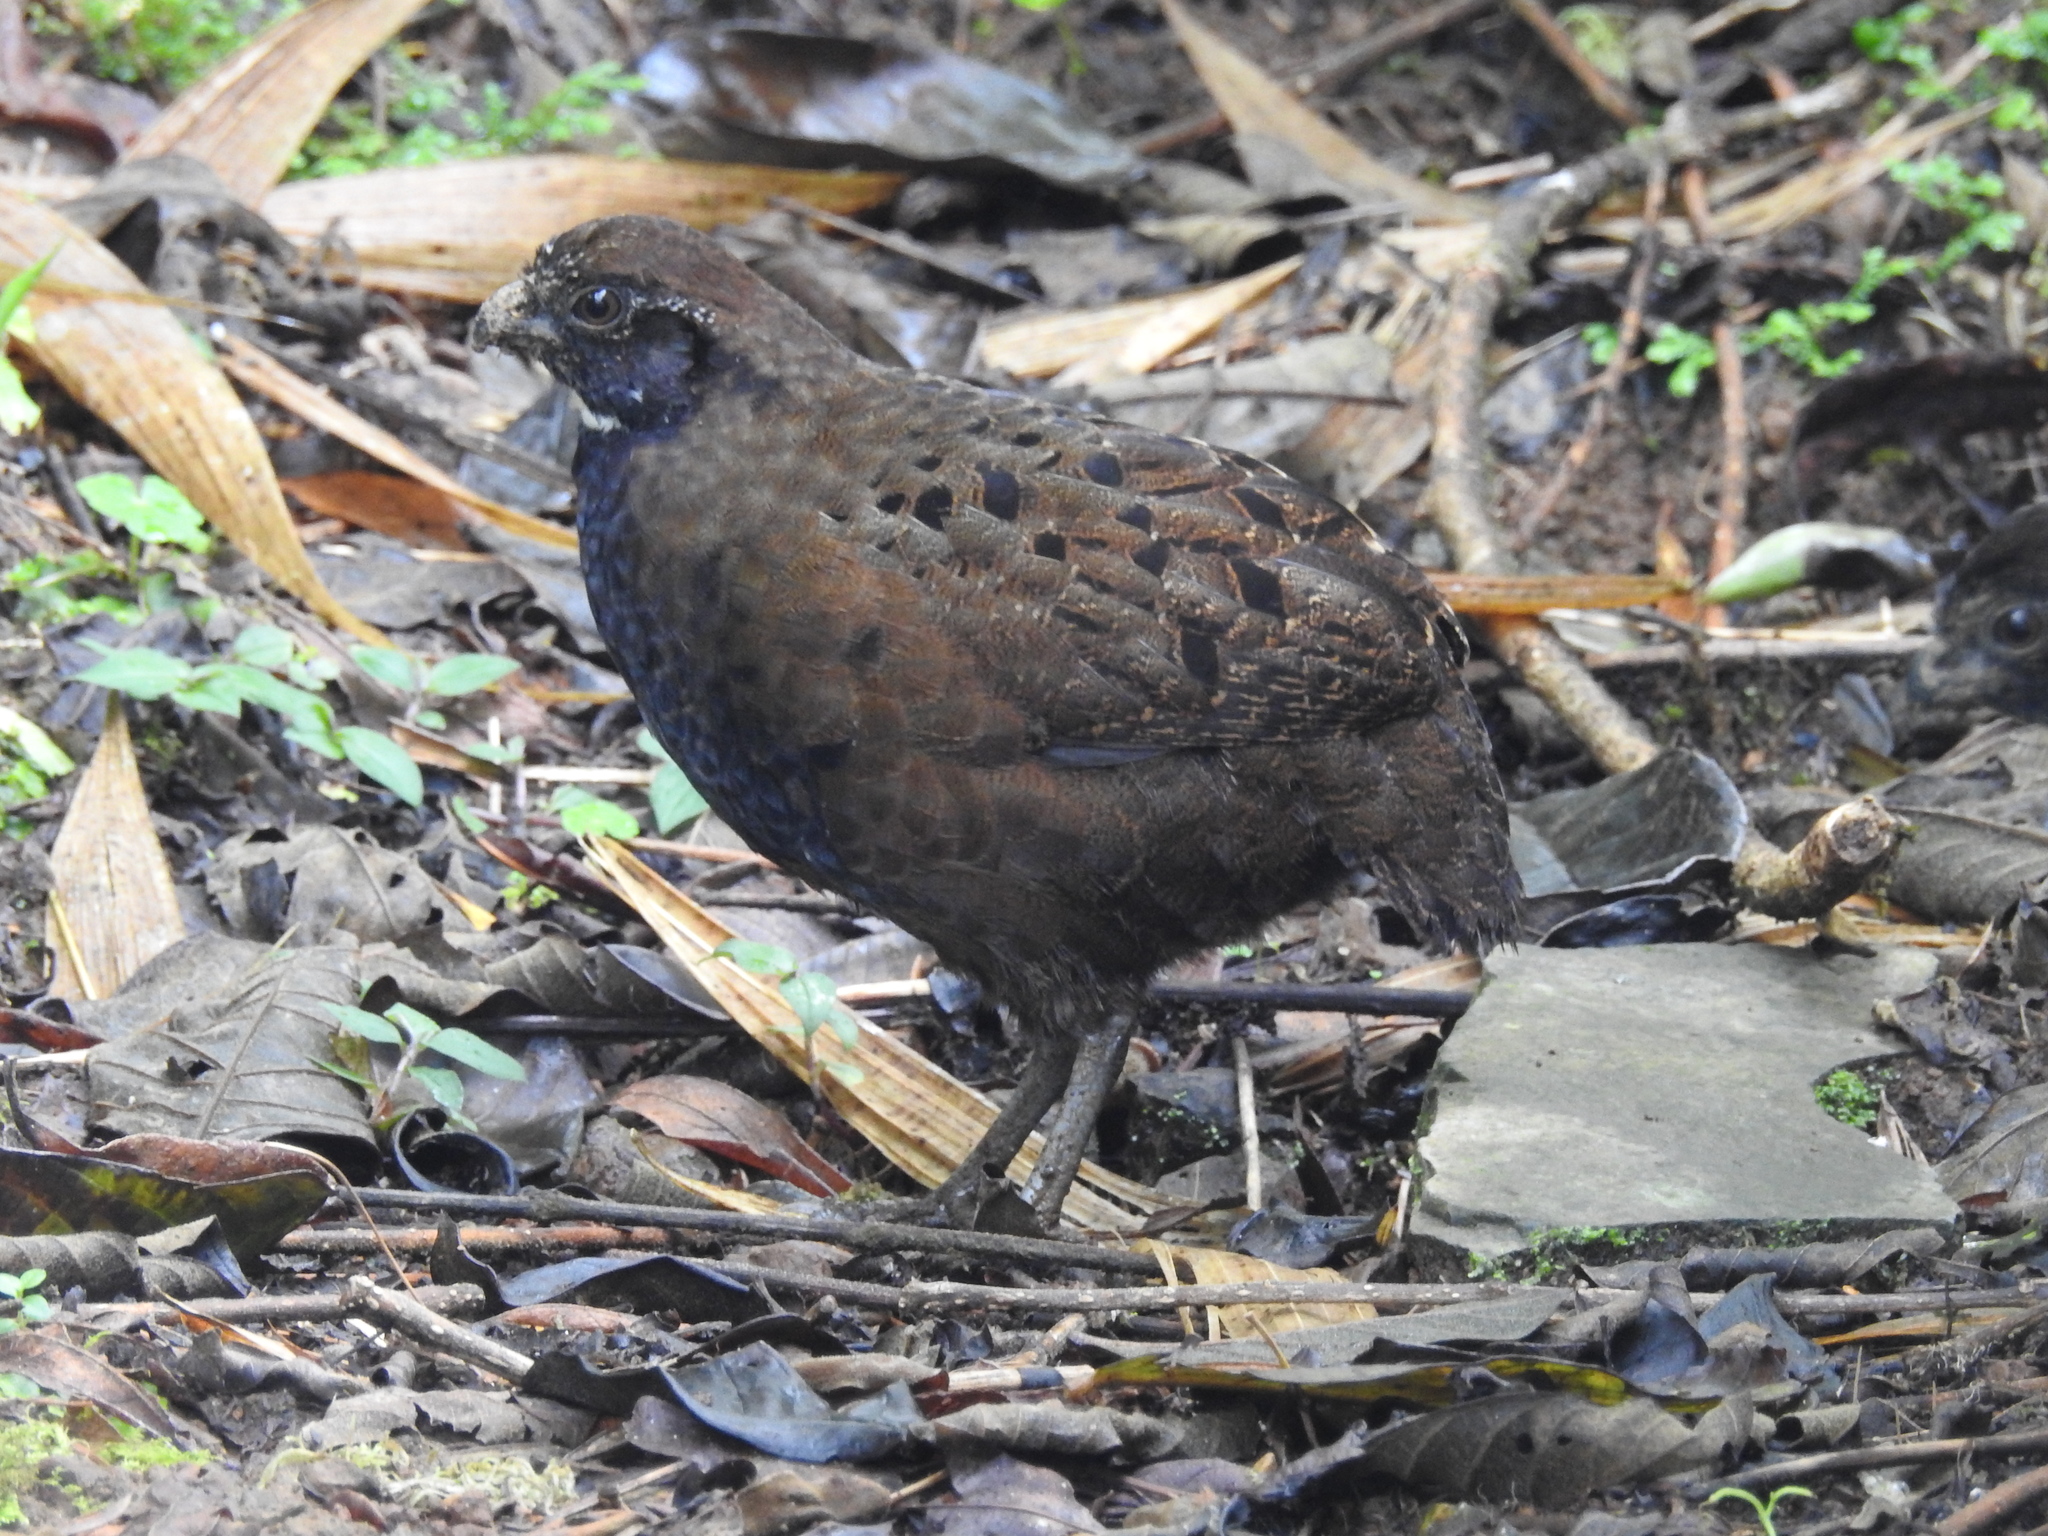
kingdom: Animalia
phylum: Chordata
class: Aves
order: Galliformes
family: Odontophoridae
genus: Odontophorus
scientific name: Odontophorus leucolaemus
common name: Black-breasted wood-quail
